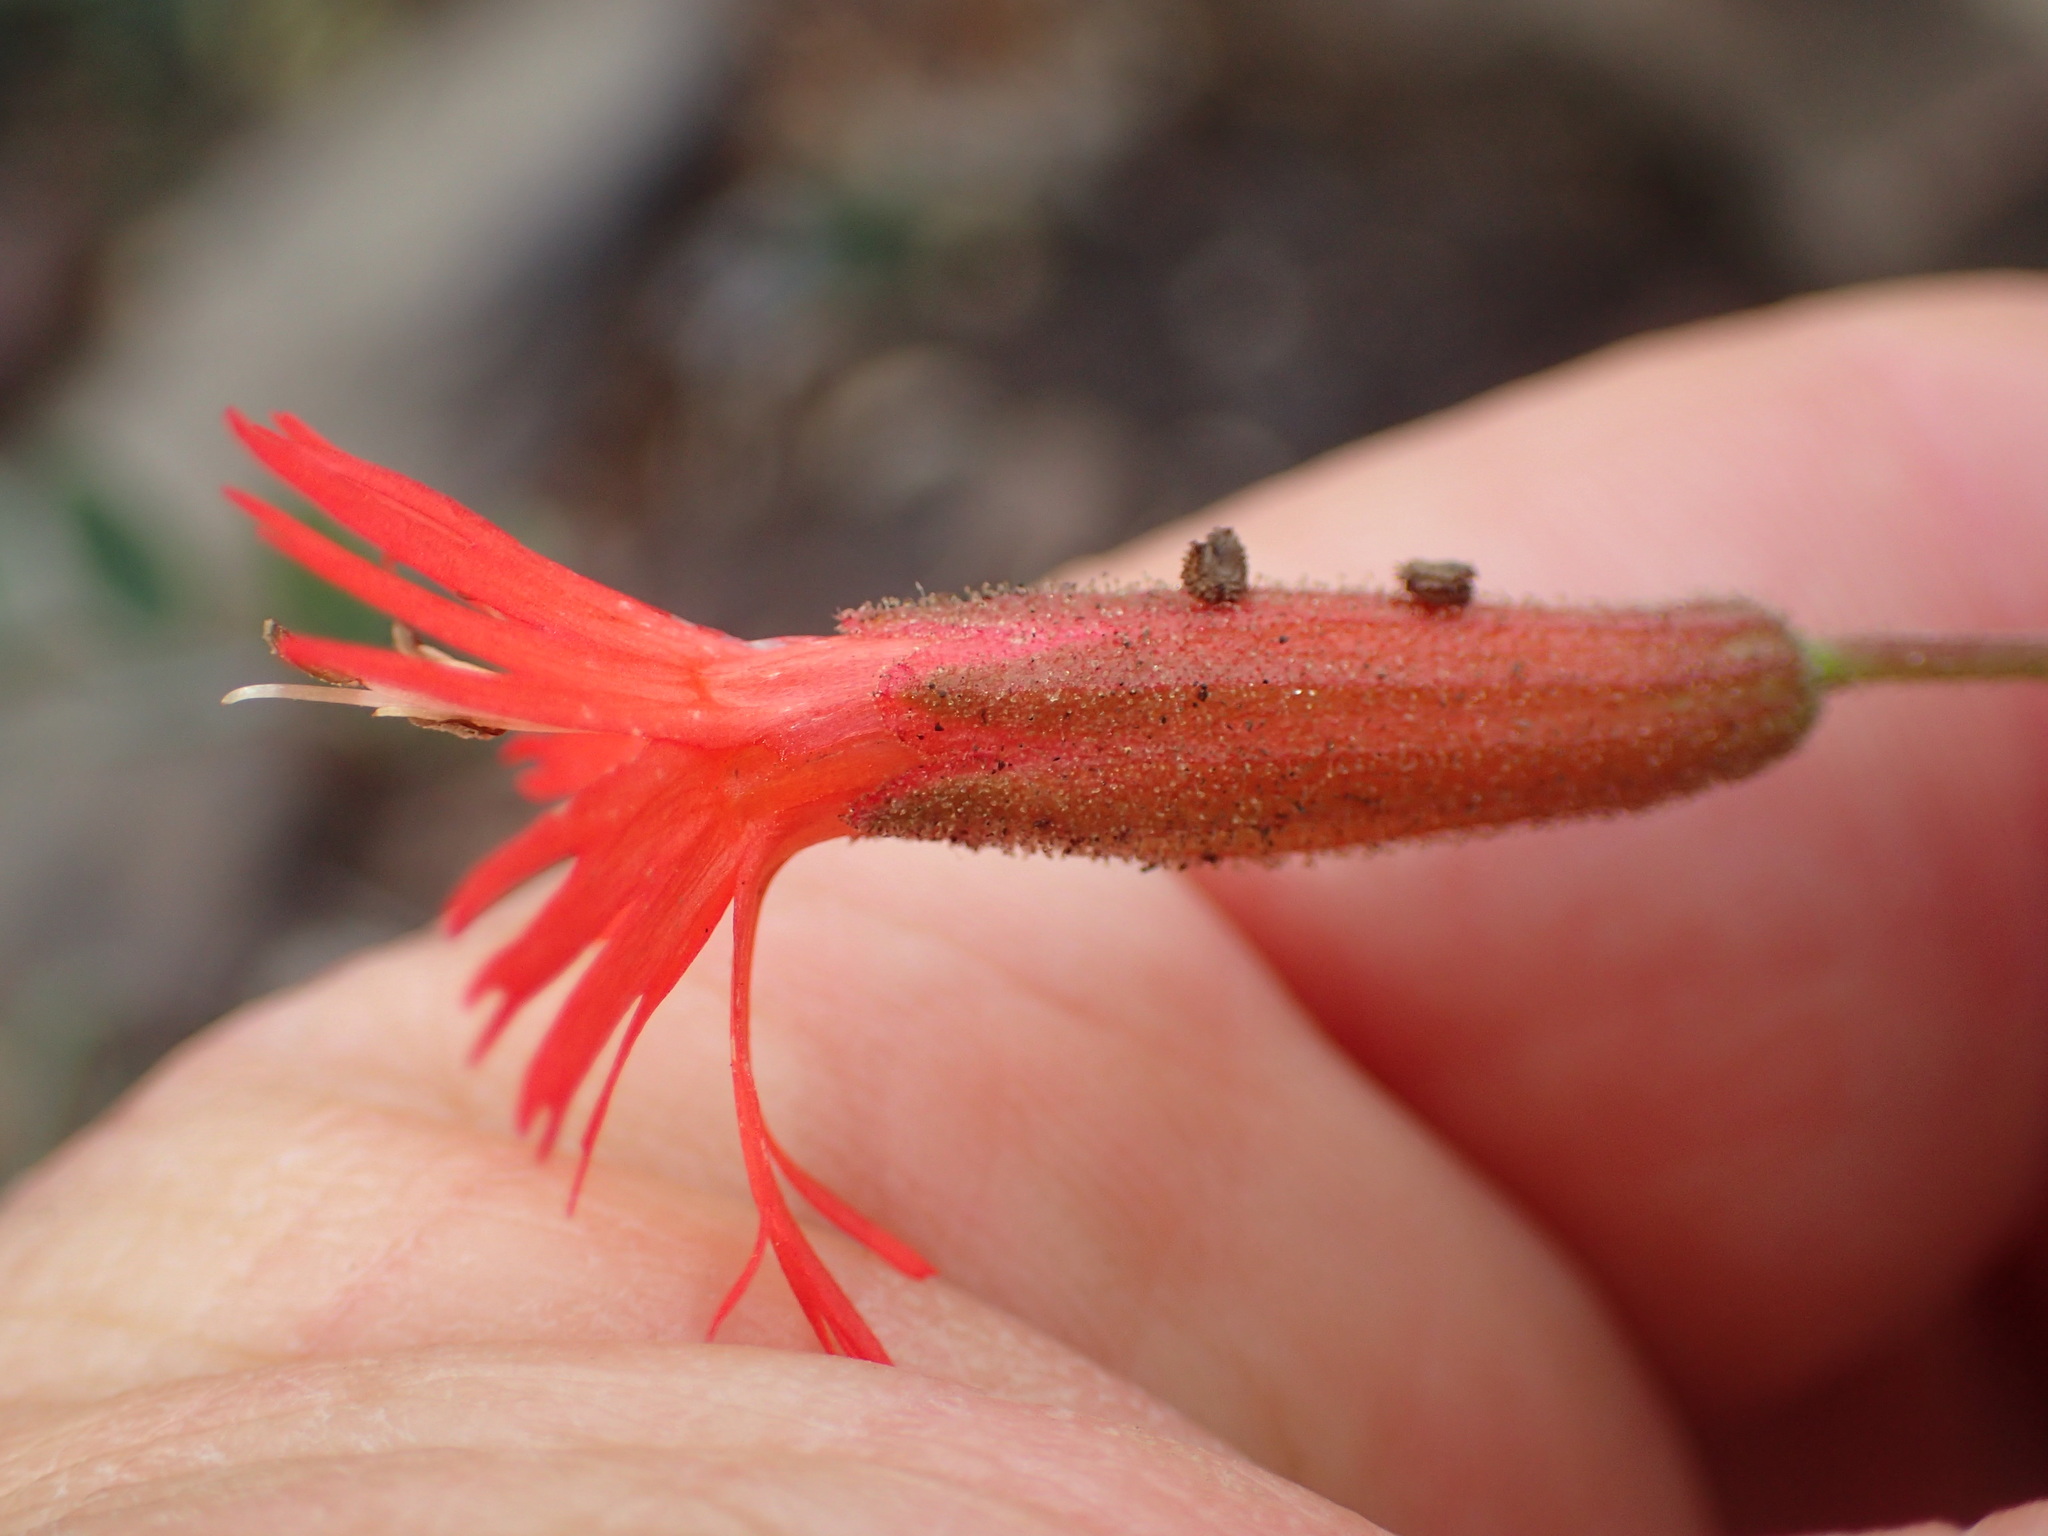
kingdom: Plantae
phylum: Tracheophyta
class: Magnoliopsida
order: Caryophyllales
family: Caryophyllaceae
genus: Silene
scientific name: Silene laciniata
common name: Indian-pink
